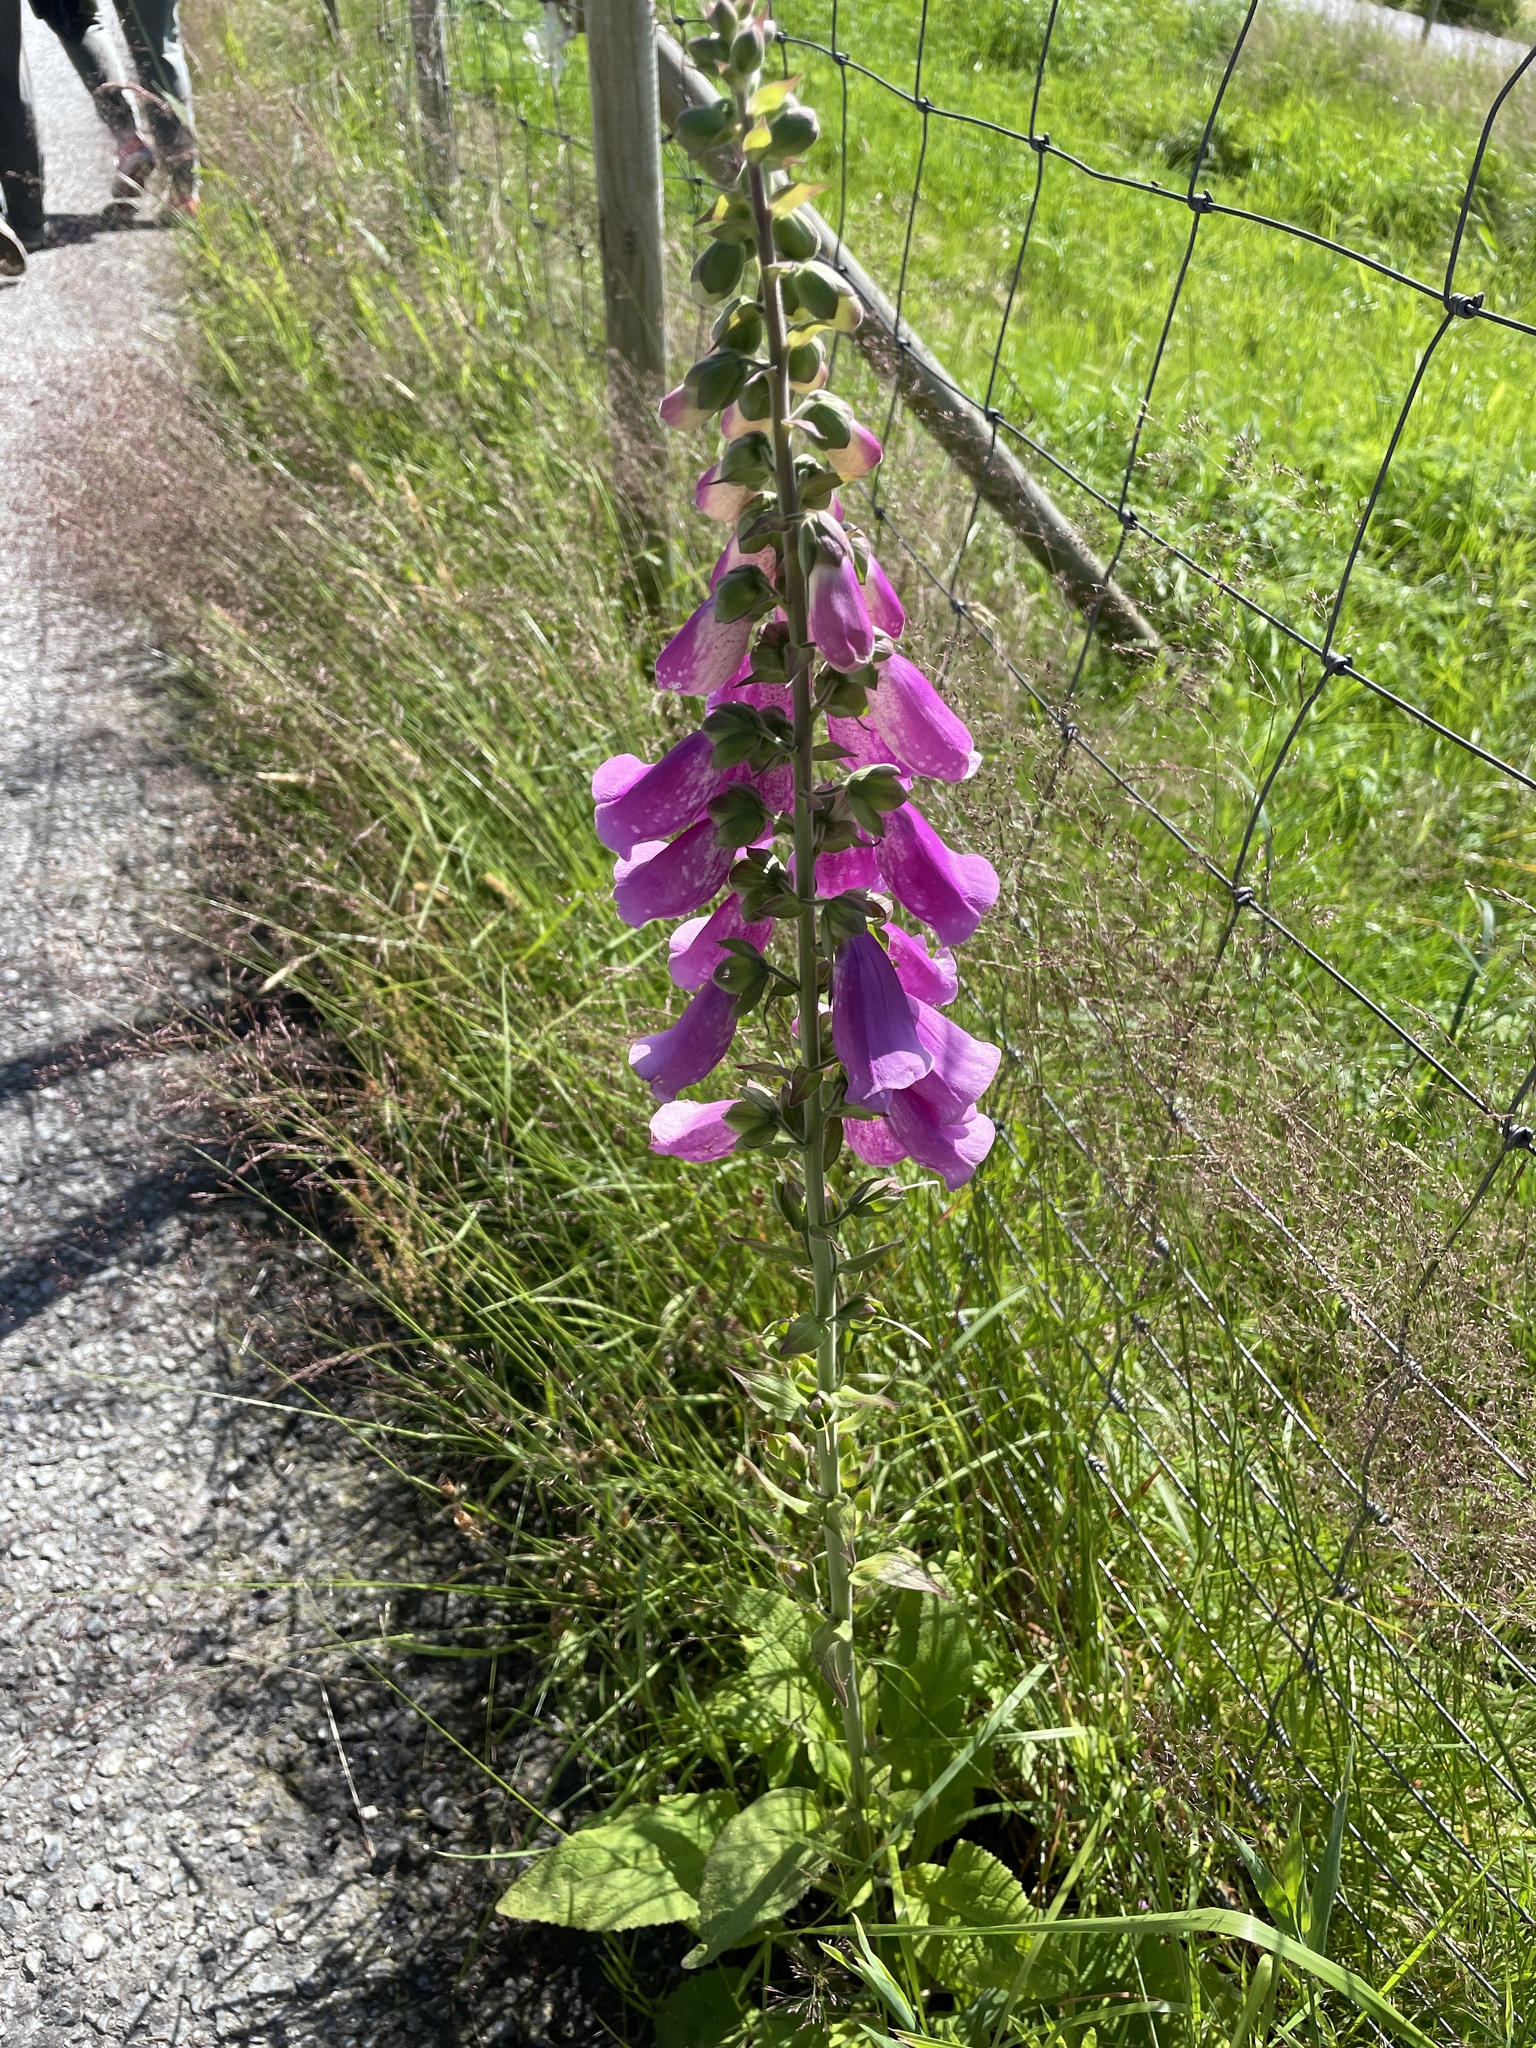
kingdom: Plantae
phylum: Tracheophyta
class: Magnoliopsida
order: Lamiales
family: Plantaginaceae
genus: Digitalis
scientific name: Digitalis purpurea
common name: Foxglove
